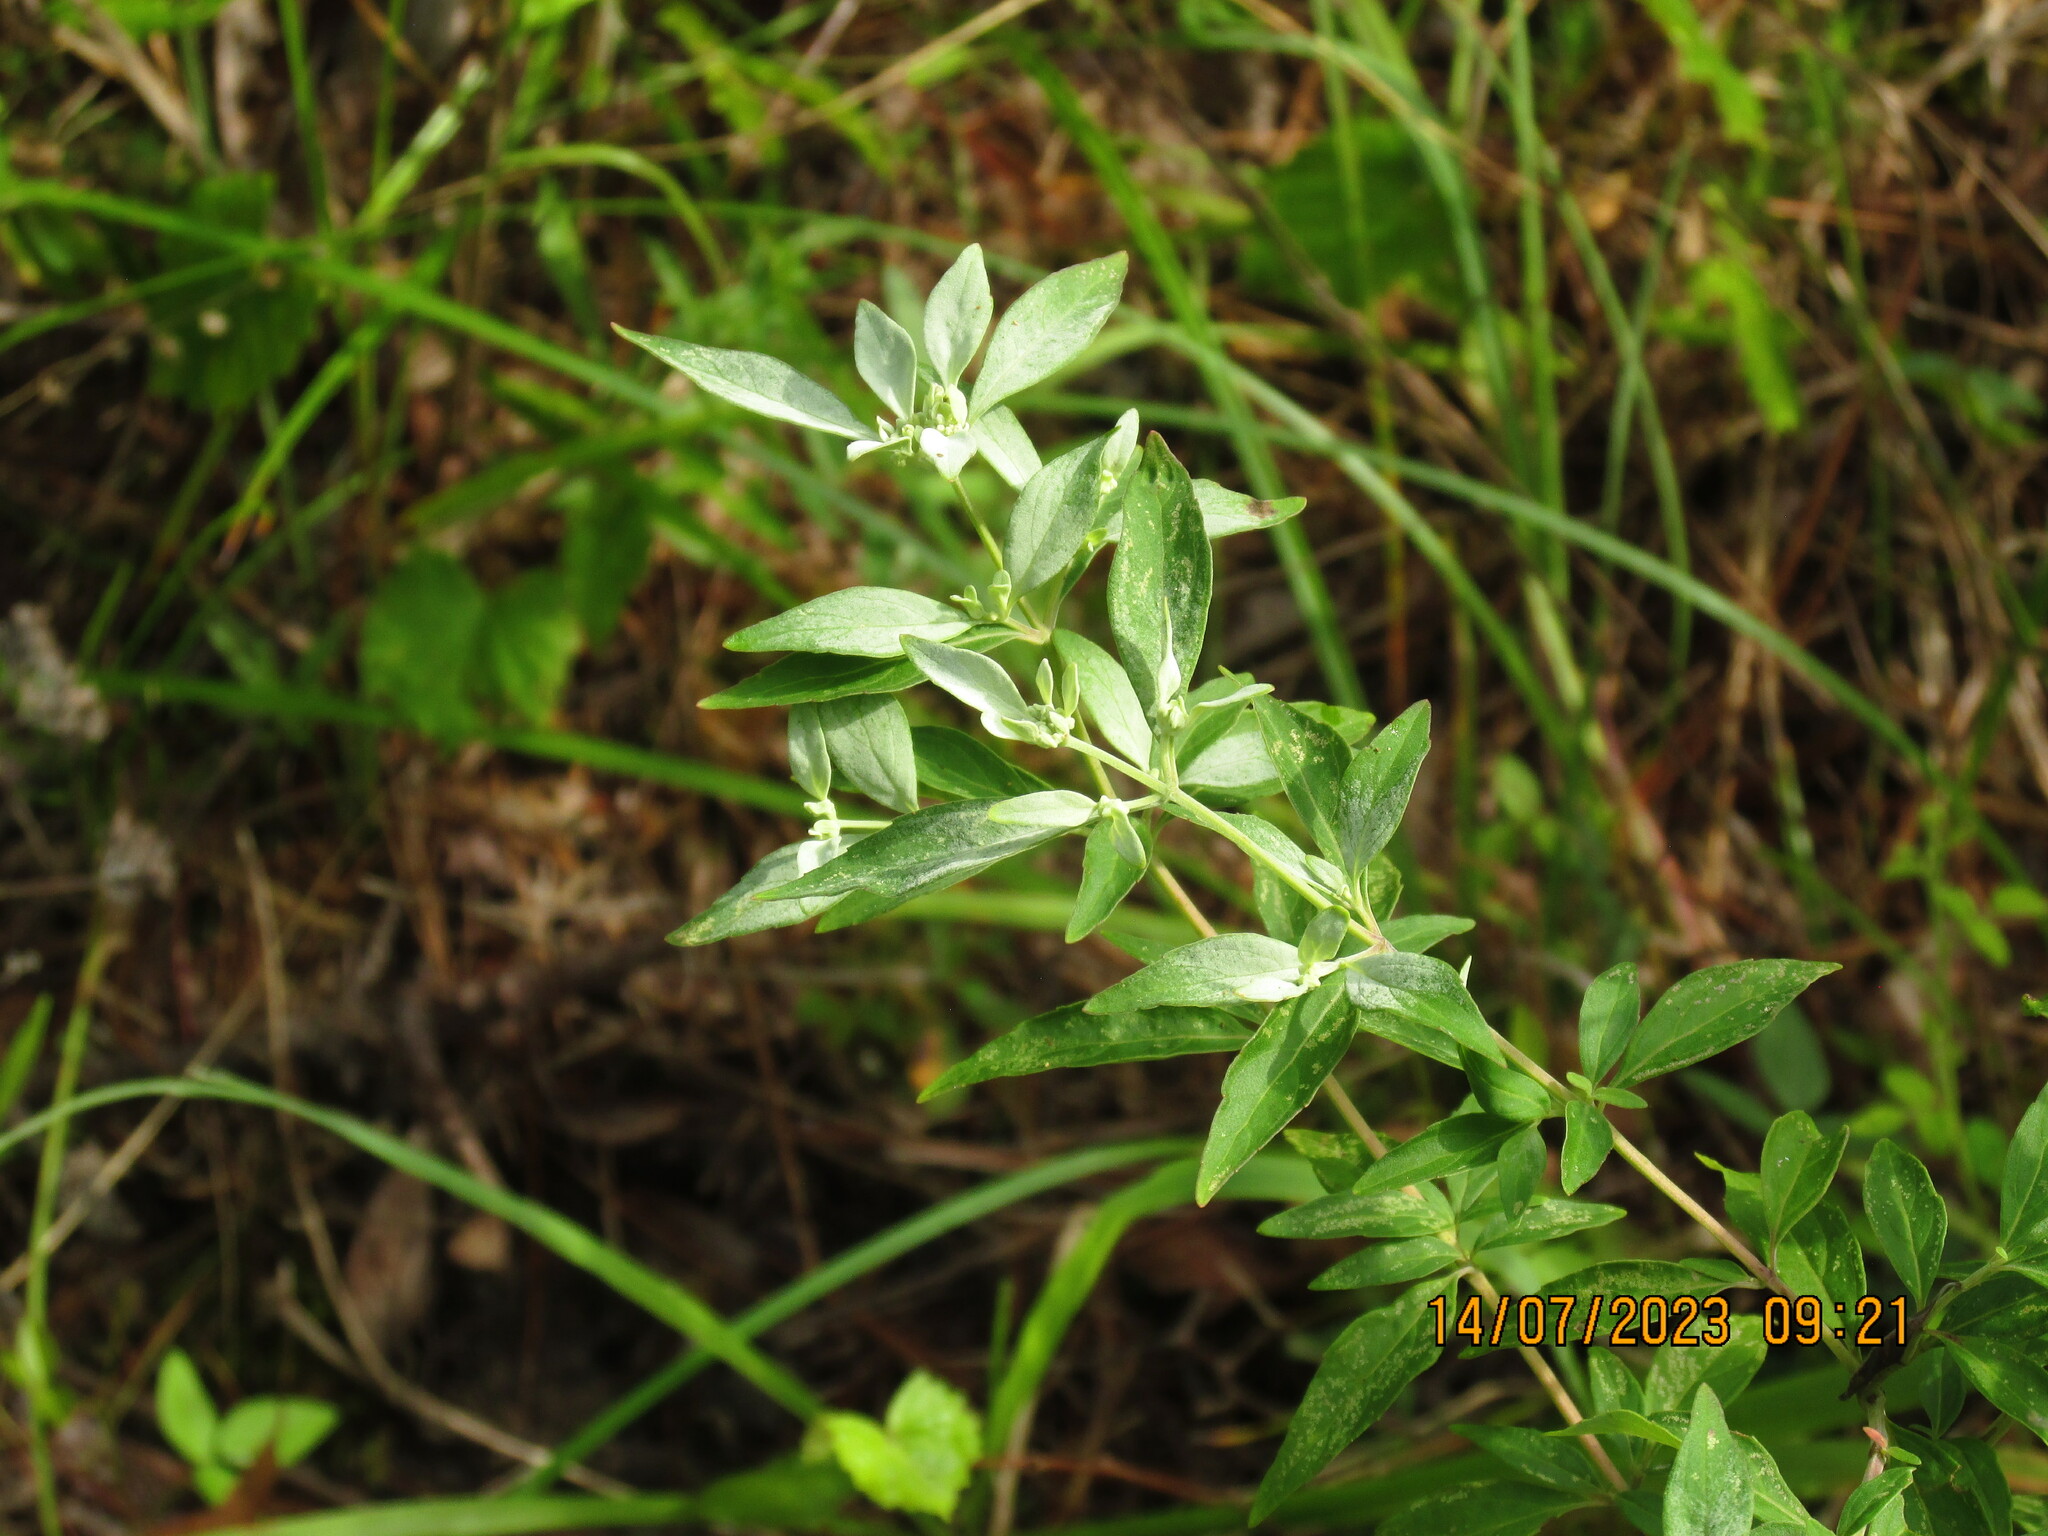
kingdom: Plantae
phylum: Tracheophyta
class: Magnoliopsida
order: Lamiales
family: Lamiaceae
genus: Pycnanthemum
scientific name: Pycnanthemum albescens
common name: White-leaf mountain-mint
